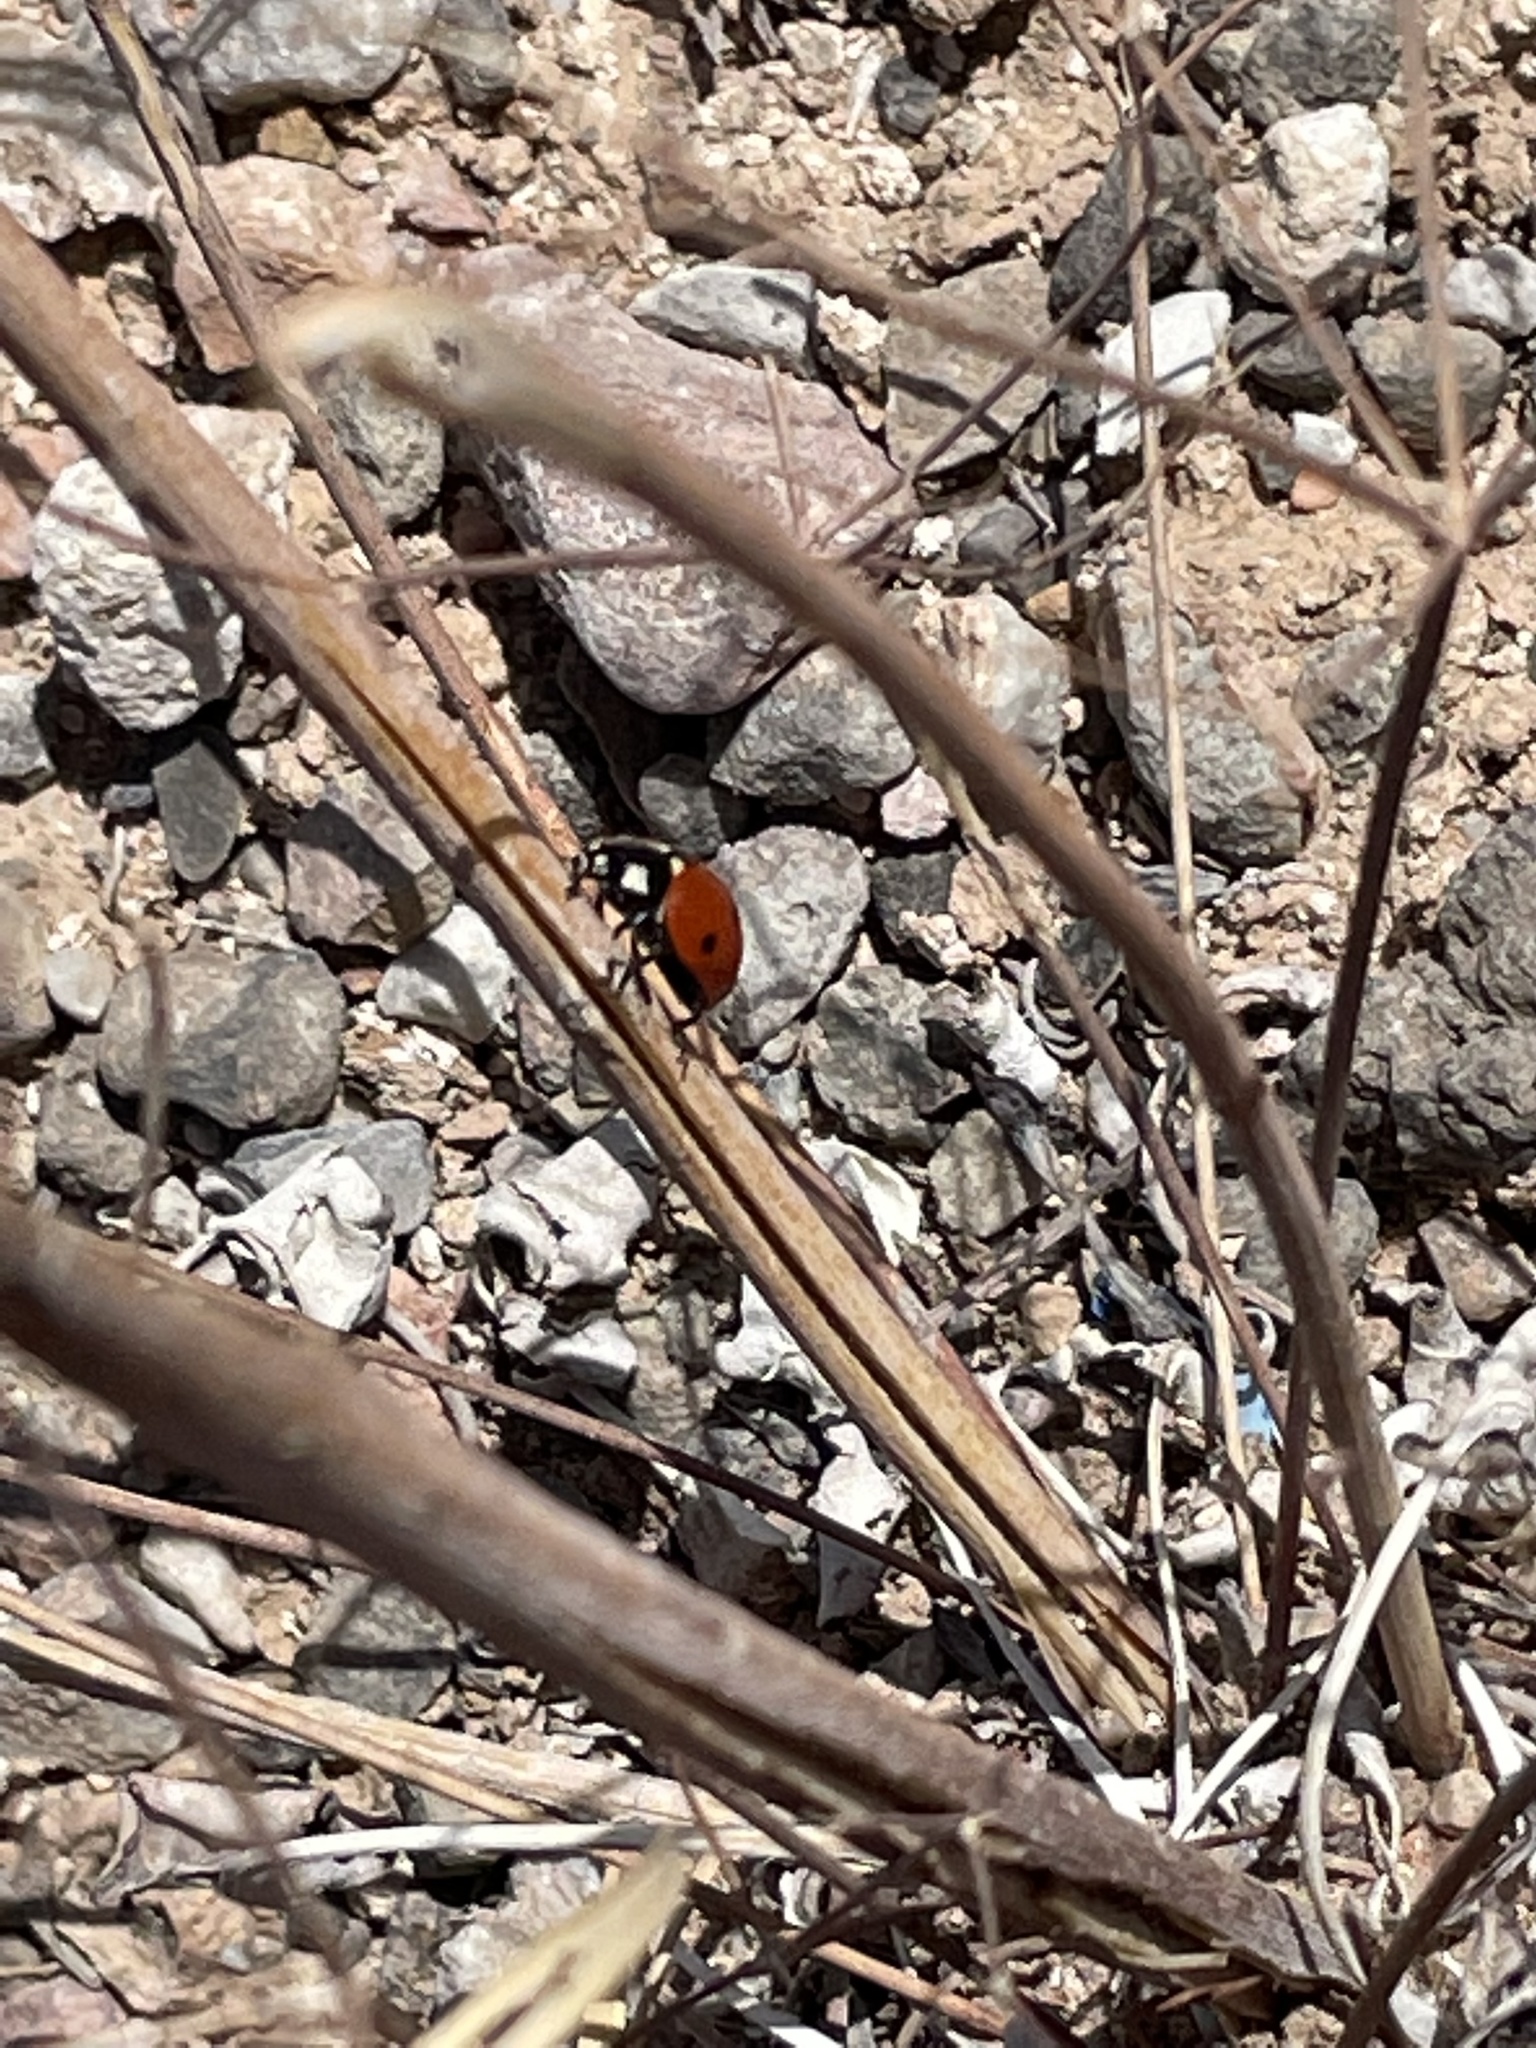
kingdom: Animalia
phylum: Arthropoda
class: Insecta
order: Coleoptera
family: Coccinellidae
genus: Coccinella
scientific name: Coccinella septempunctata
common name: Sevenspotted lady beetle
